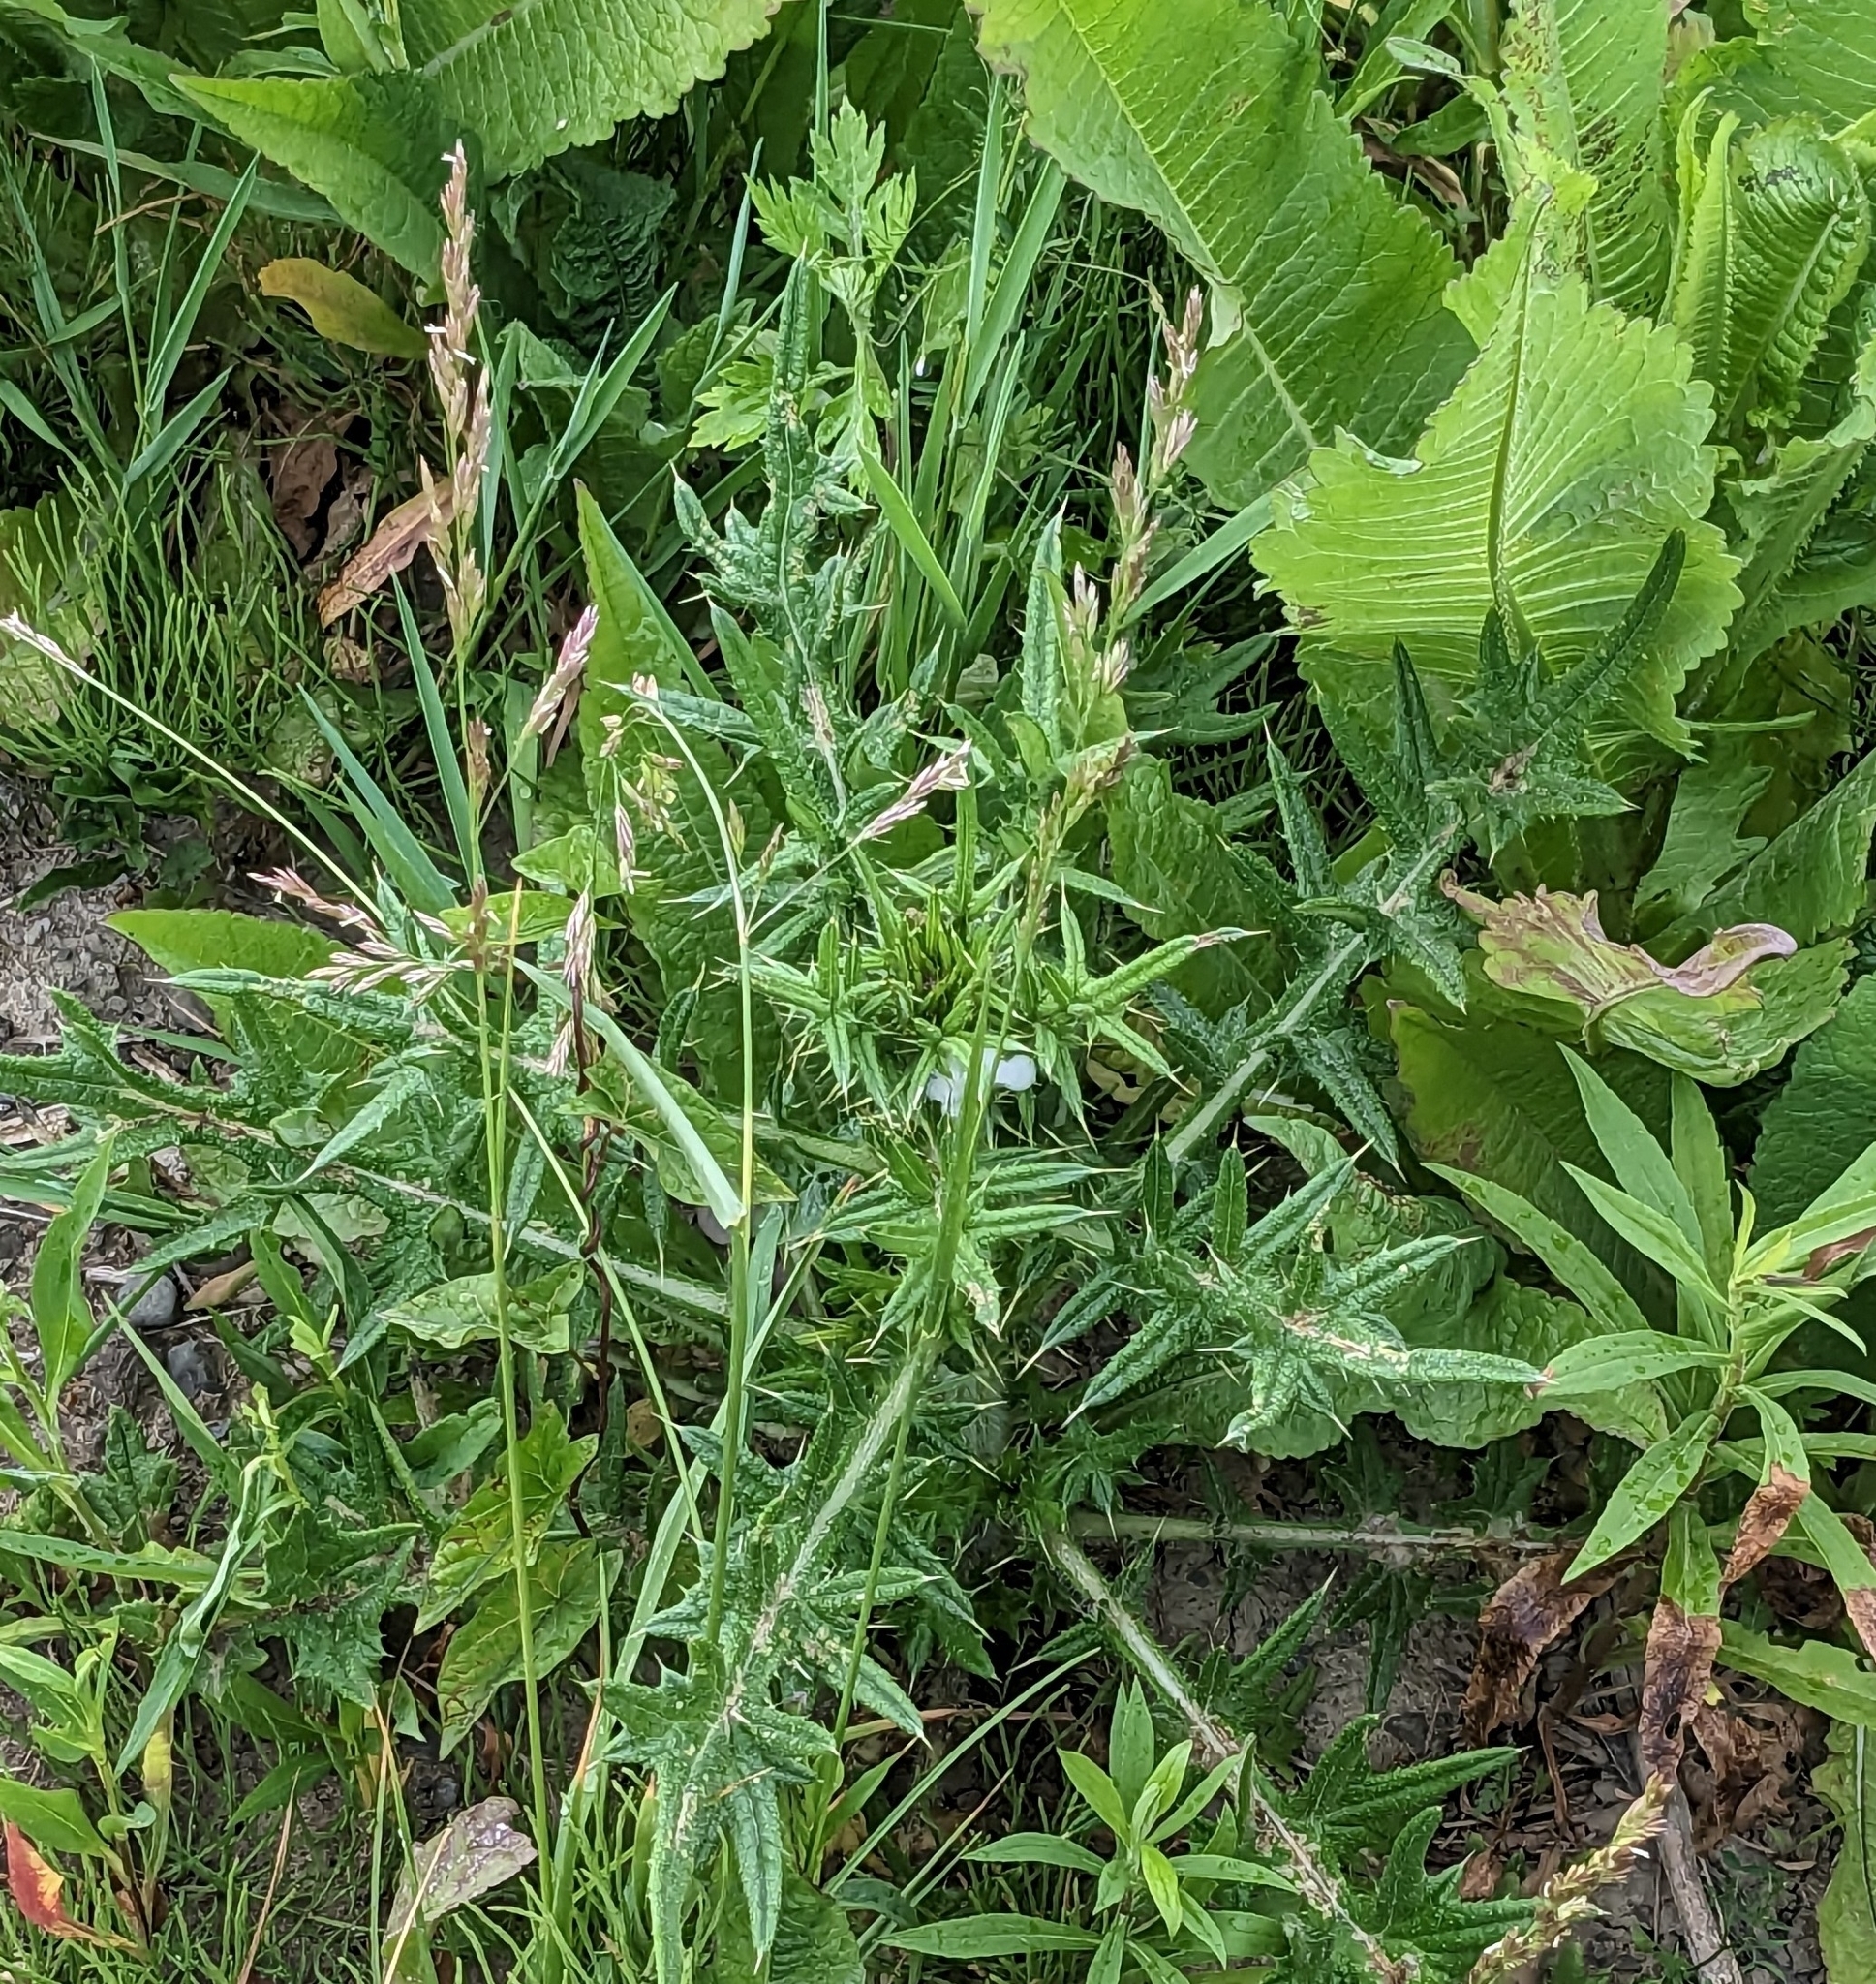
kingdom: Plantae
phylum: Tracheophyta
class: Magnoliopsida
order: Asterales
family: Asteraceae
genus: Cirsium
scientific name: Cirsium vulgare
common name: Bull thistle
